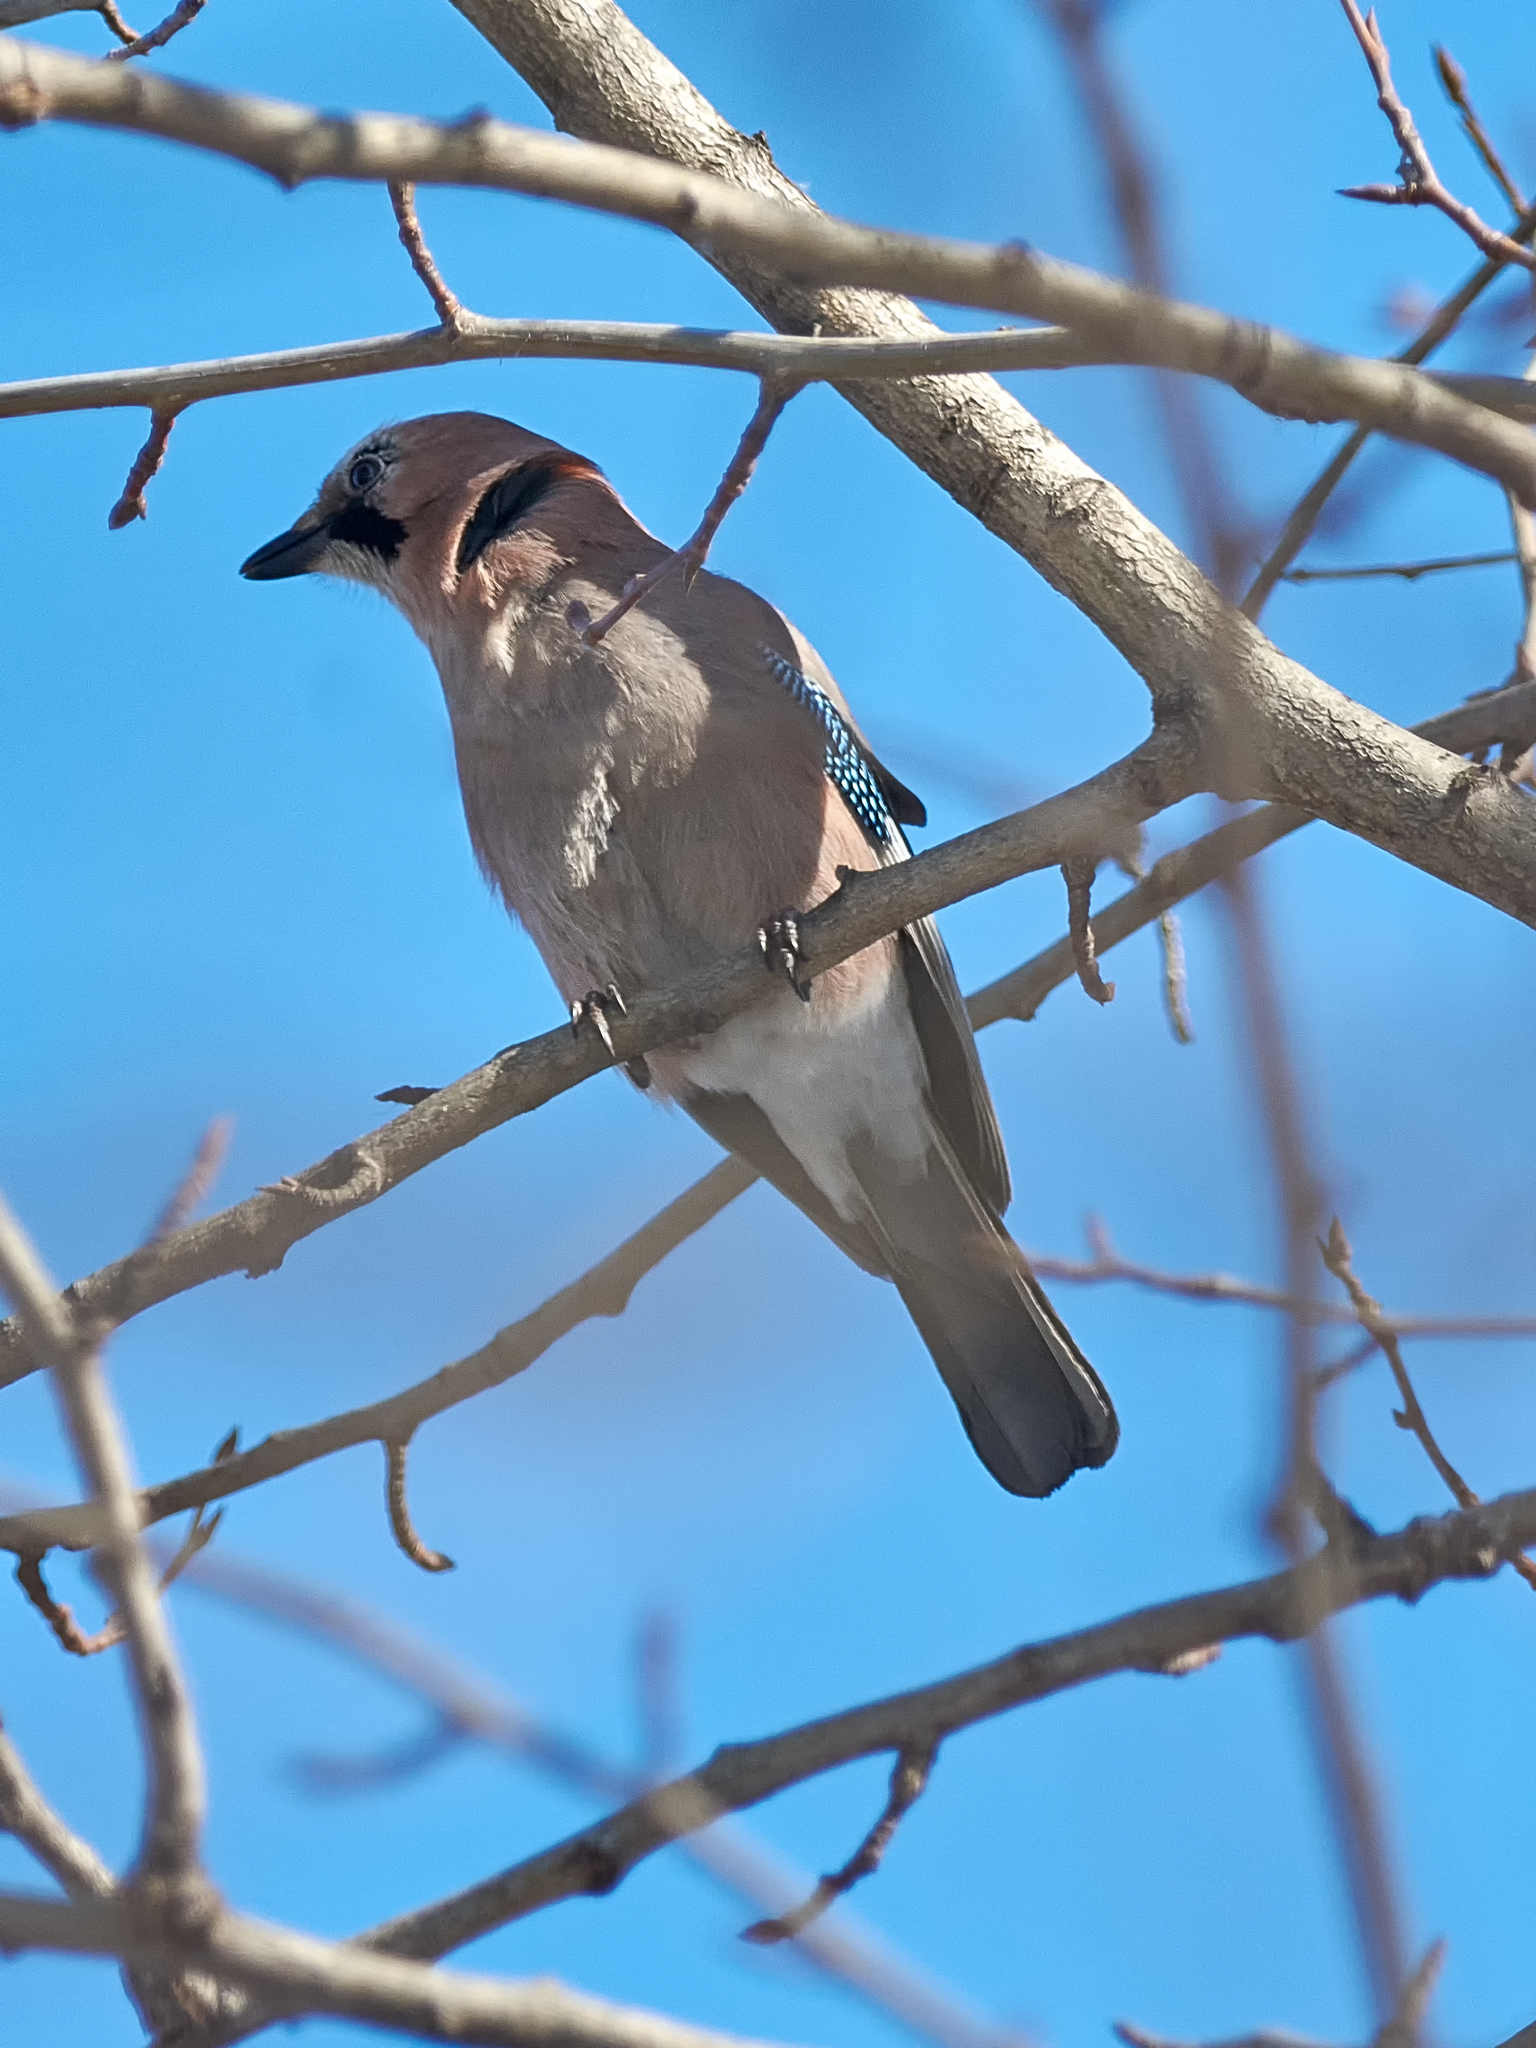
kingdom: Animalia
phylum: Chordata
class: Aves
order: Passeriformes
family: Corvidae
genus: Garrulus
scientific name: Garrulus glandarius
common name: Eurasian jay
